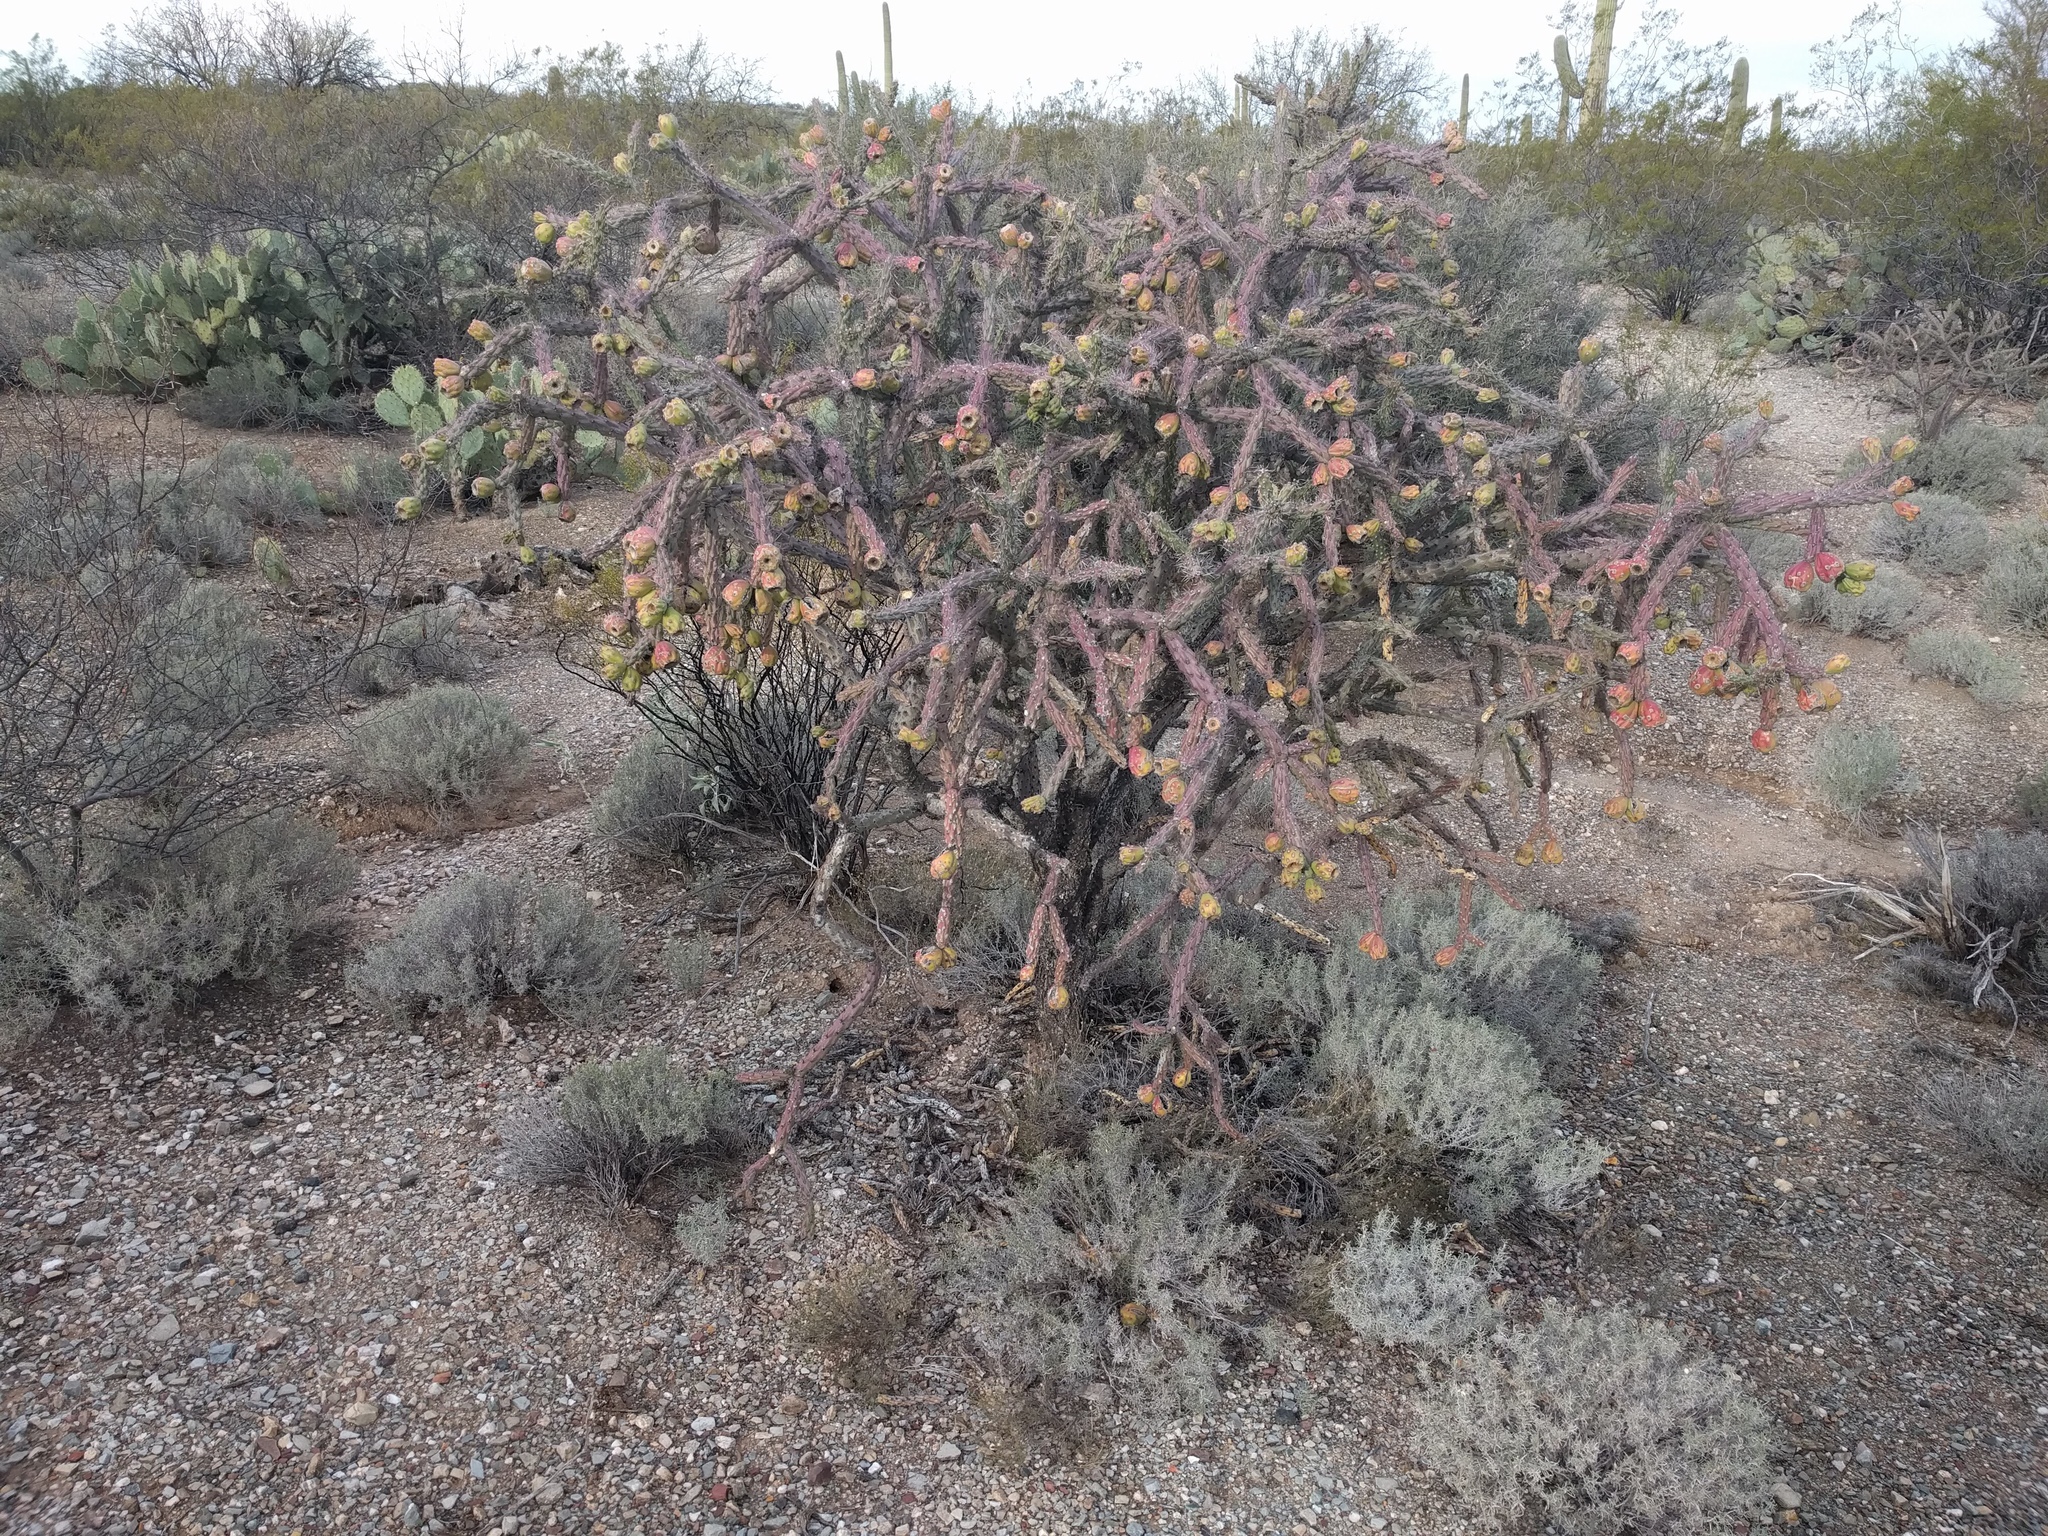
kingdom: Plantae
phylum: Tracheophyta
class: Magnoliopsida
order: Caryophyllales
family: Cactaceae
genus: Cylindropuntia
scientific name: Cylindropuntia thurberi
